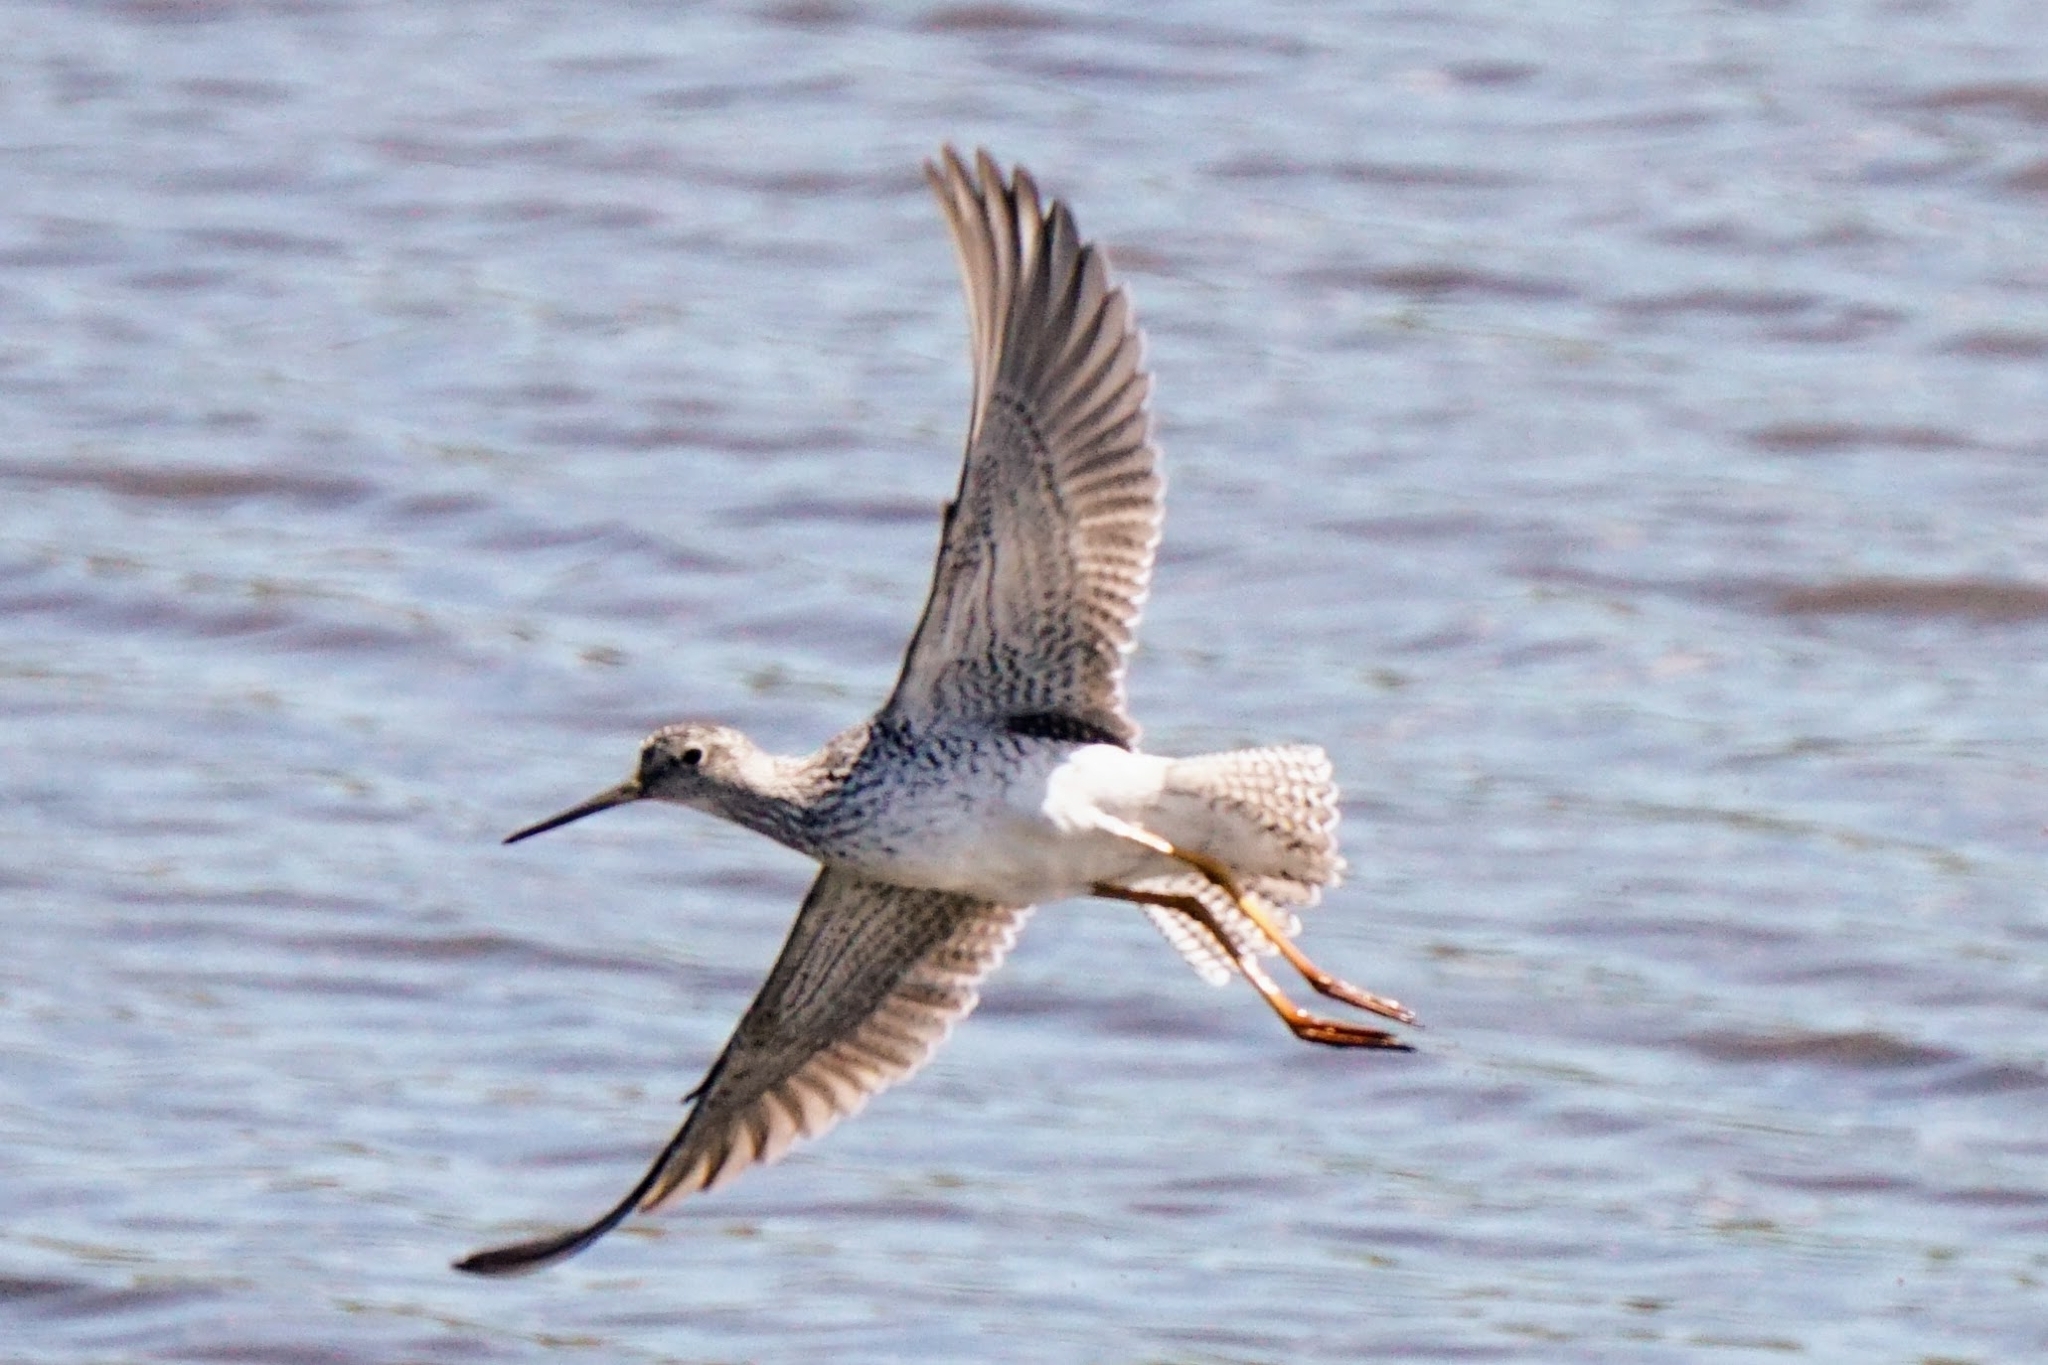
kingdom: Animalia
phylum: Chordata
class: Aves
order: Charadriiformes
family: Scolopacidae
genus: Tringa
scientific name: Tringa solitaria
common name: Solitary sandpiper
